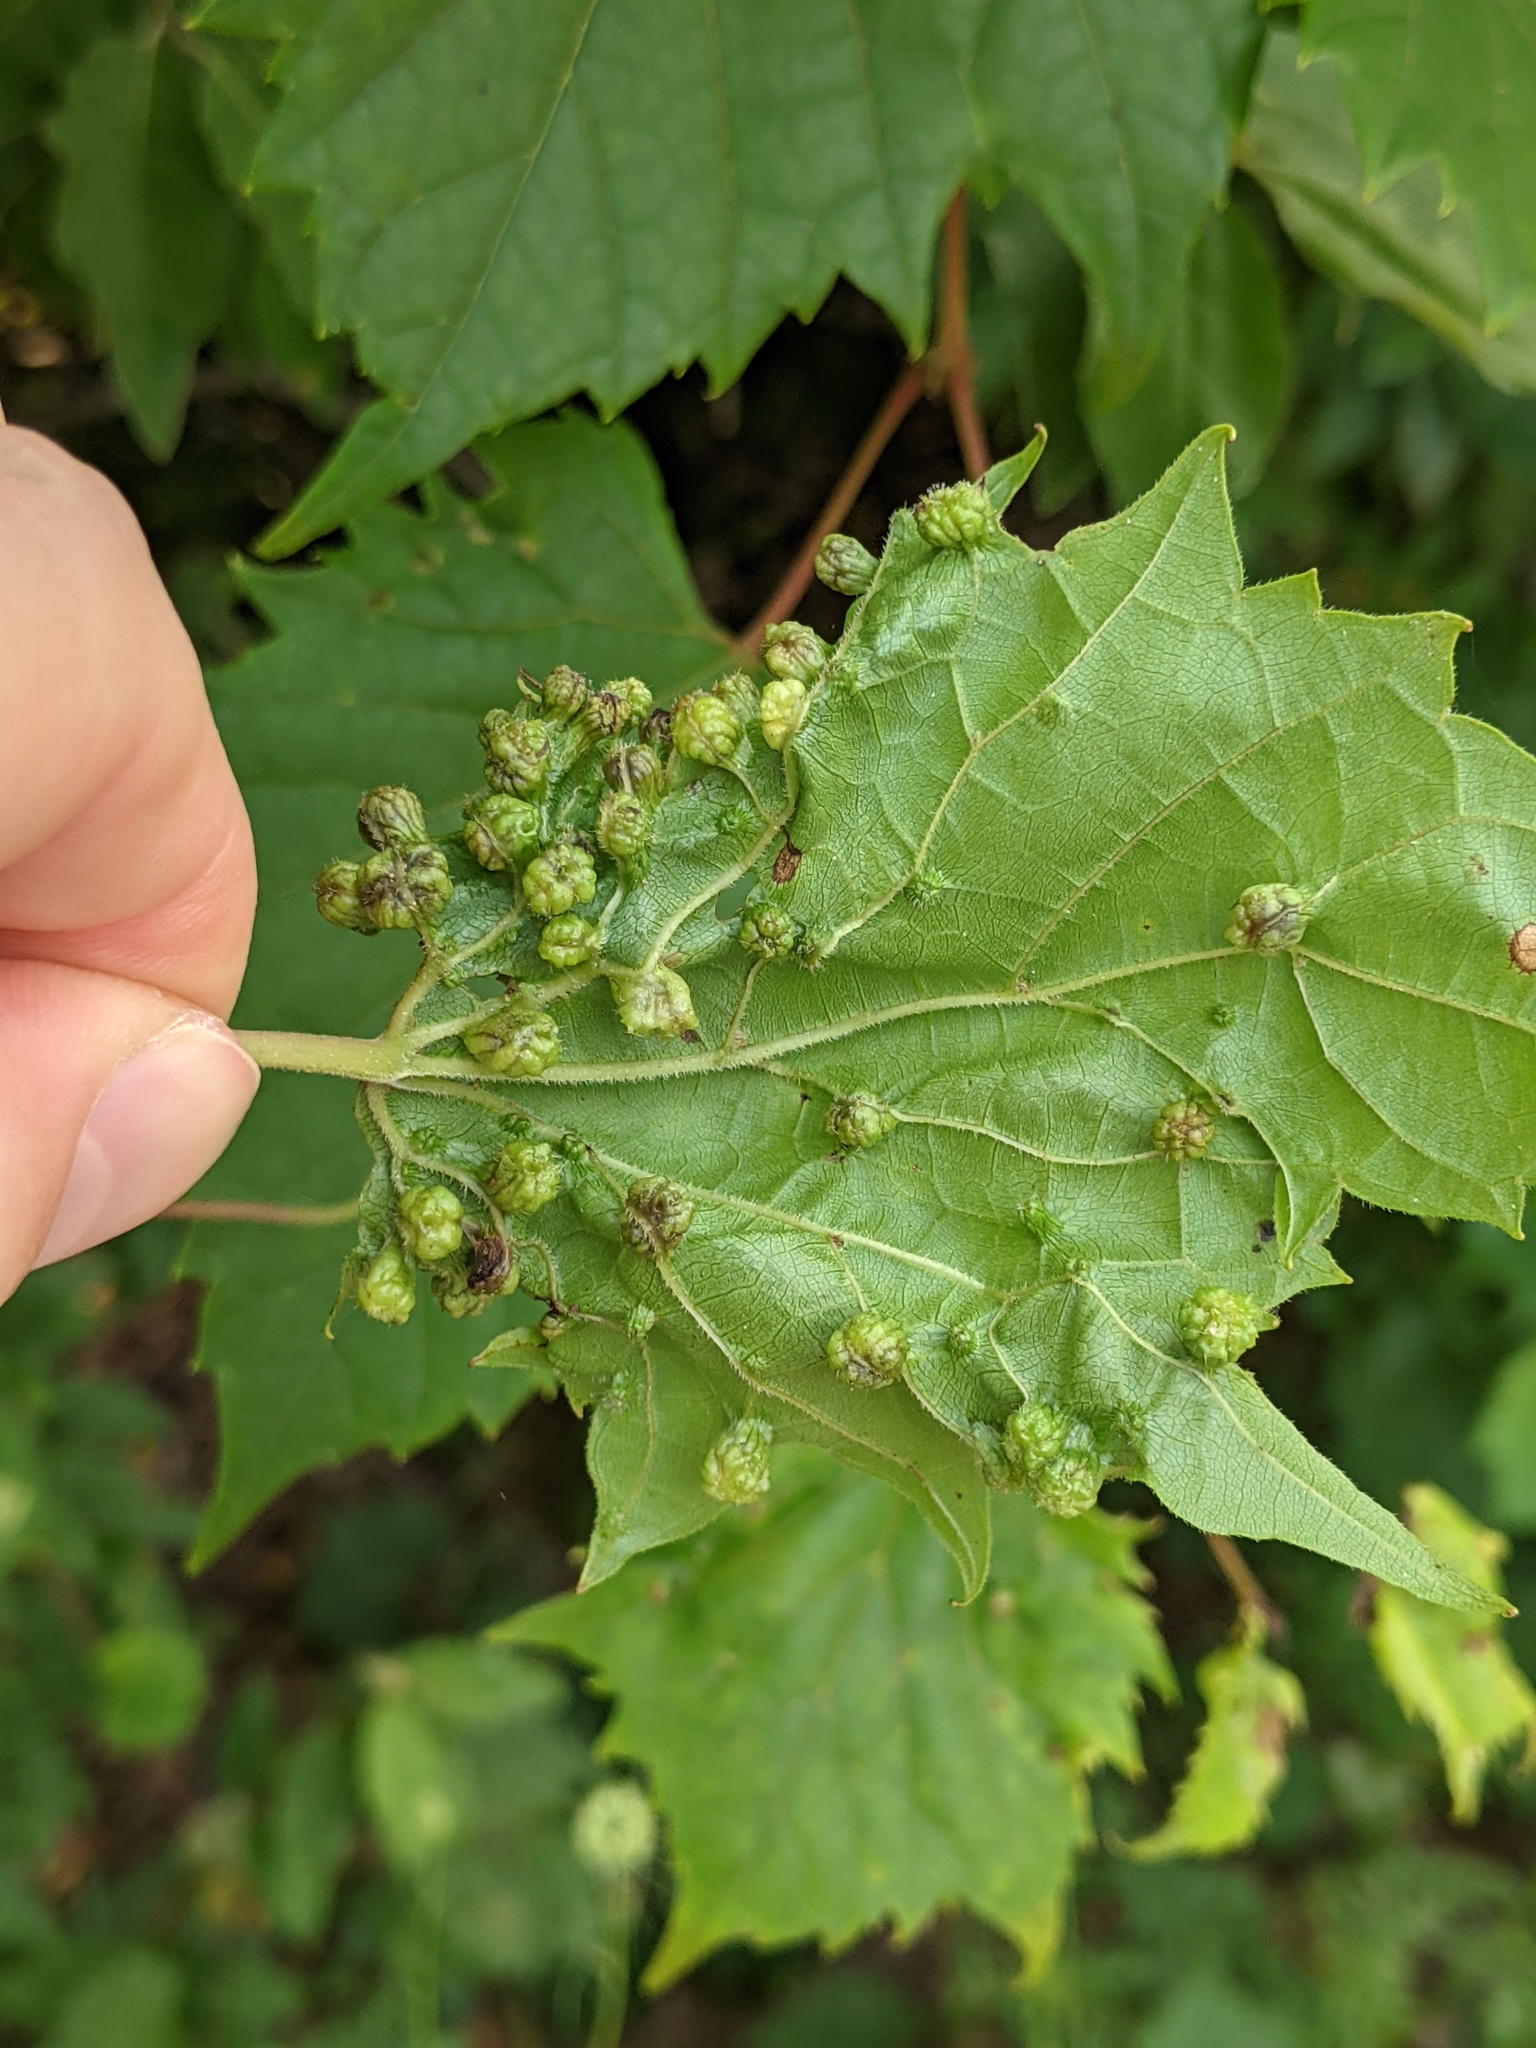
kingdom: Animalia
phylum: Arthropoda
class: Insecta
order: Hemiptera
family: Phylloxeridae
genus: Daktulosphaira
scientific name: Daktulosphaira vitifoliae
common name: Grape phylloxera
